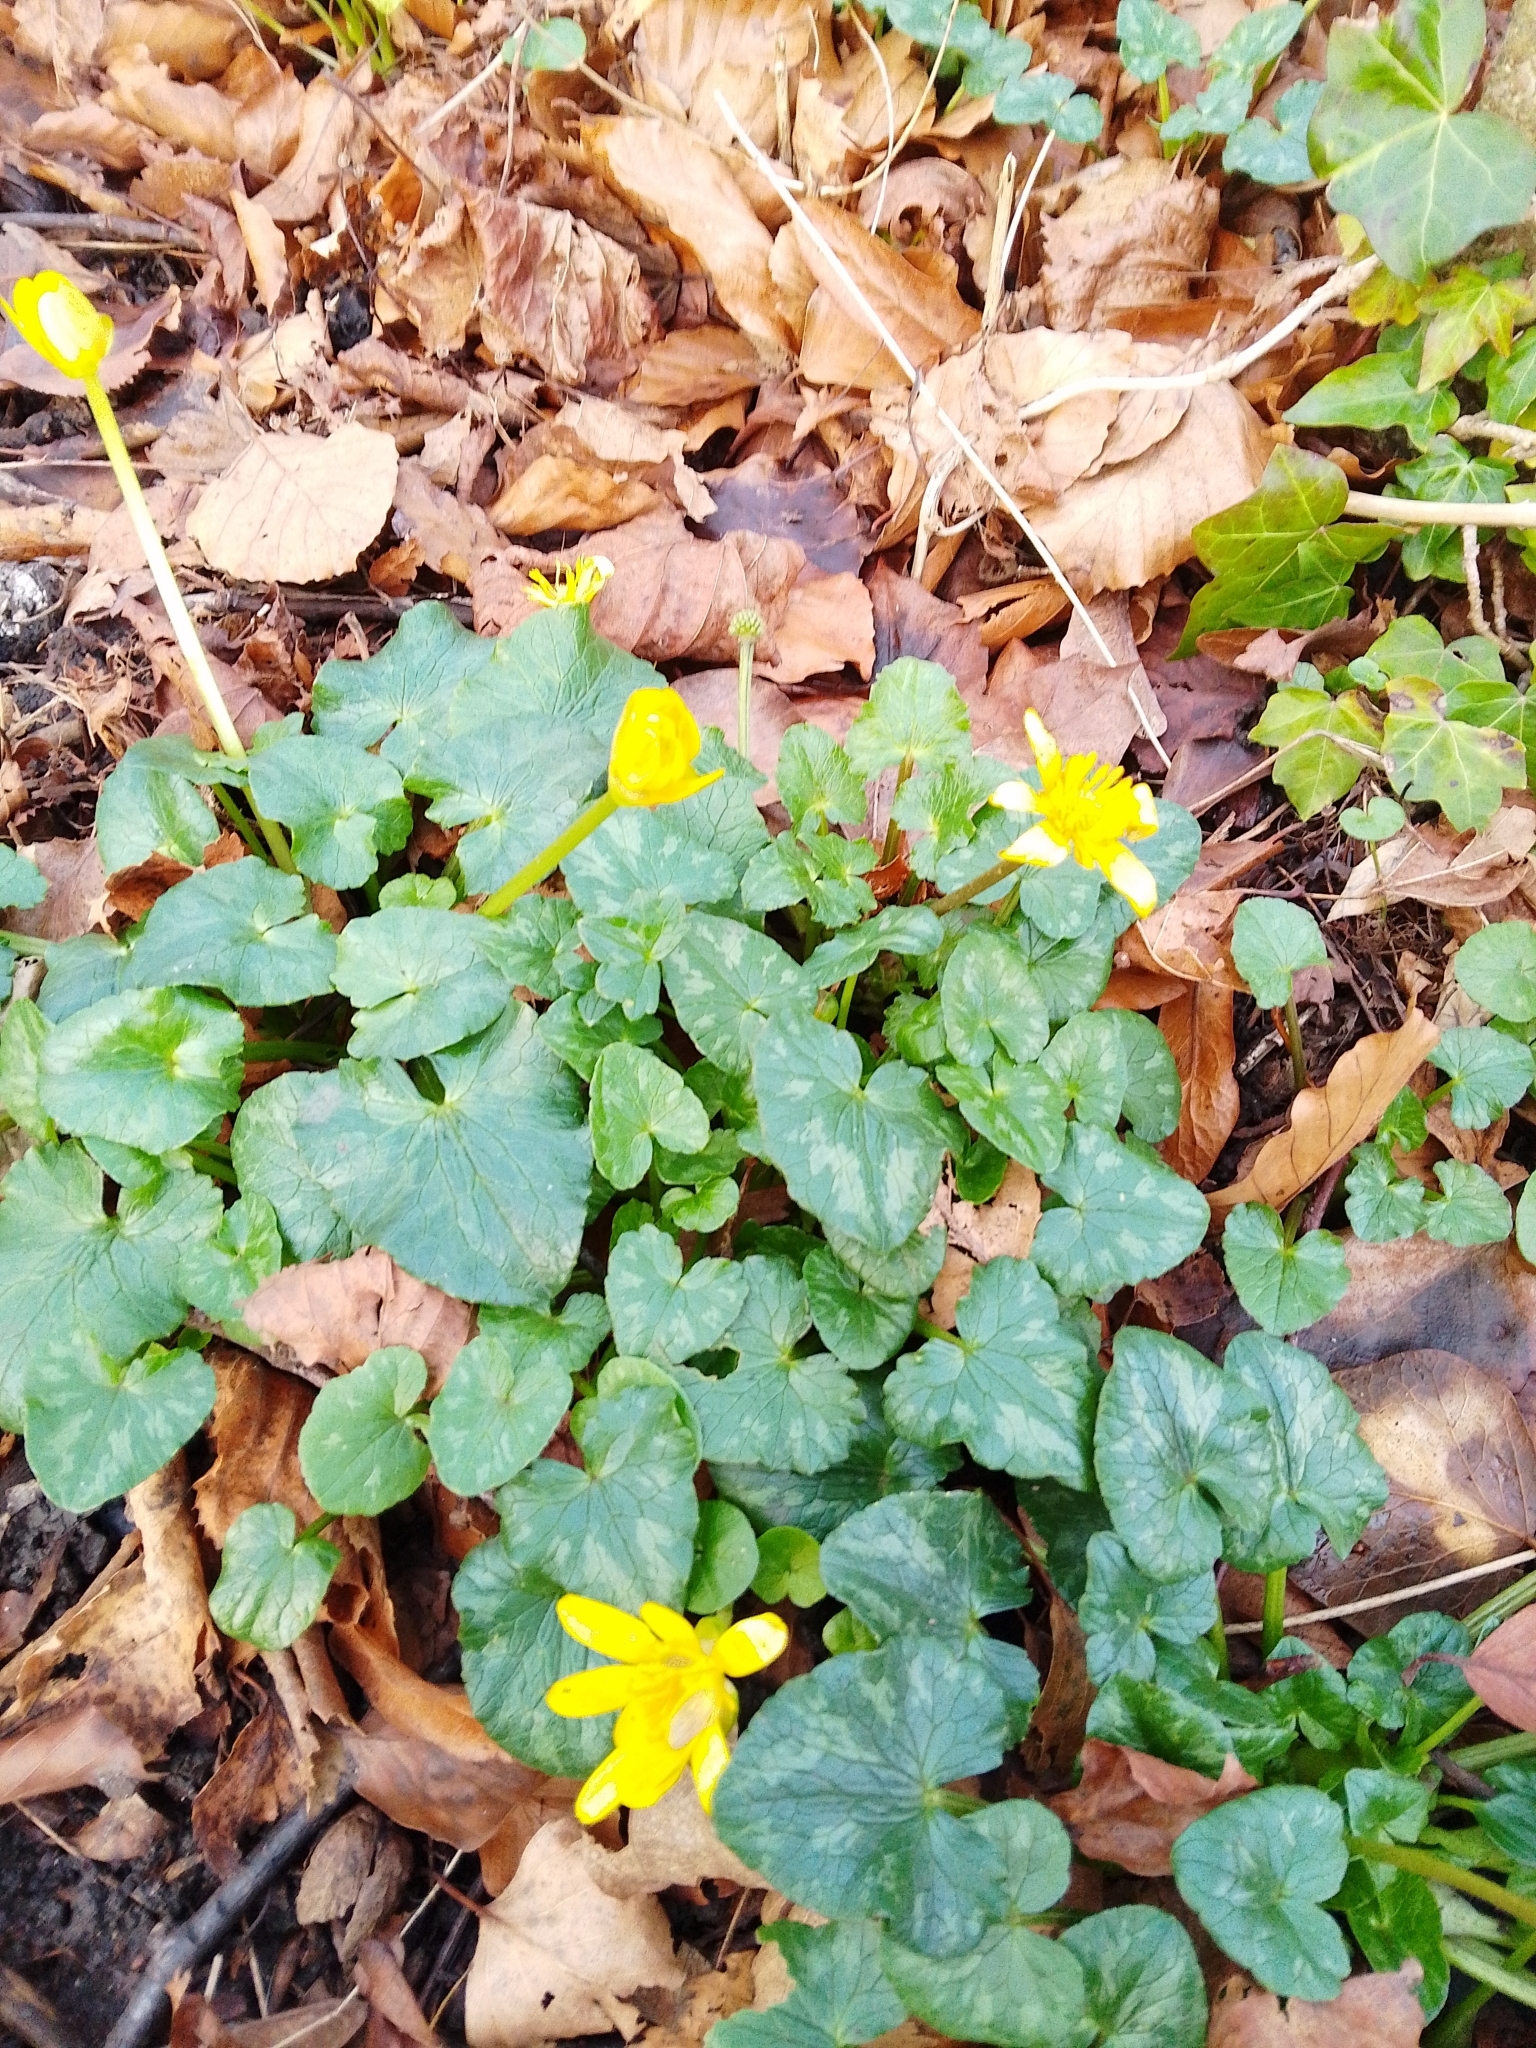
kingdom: Plantae
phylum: Tracheophyta
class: Magnoliopsida
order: Ranunculales
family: Ranunculaceae
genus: Ficaria
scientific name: Ficaria verna
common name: Lesser celandine
